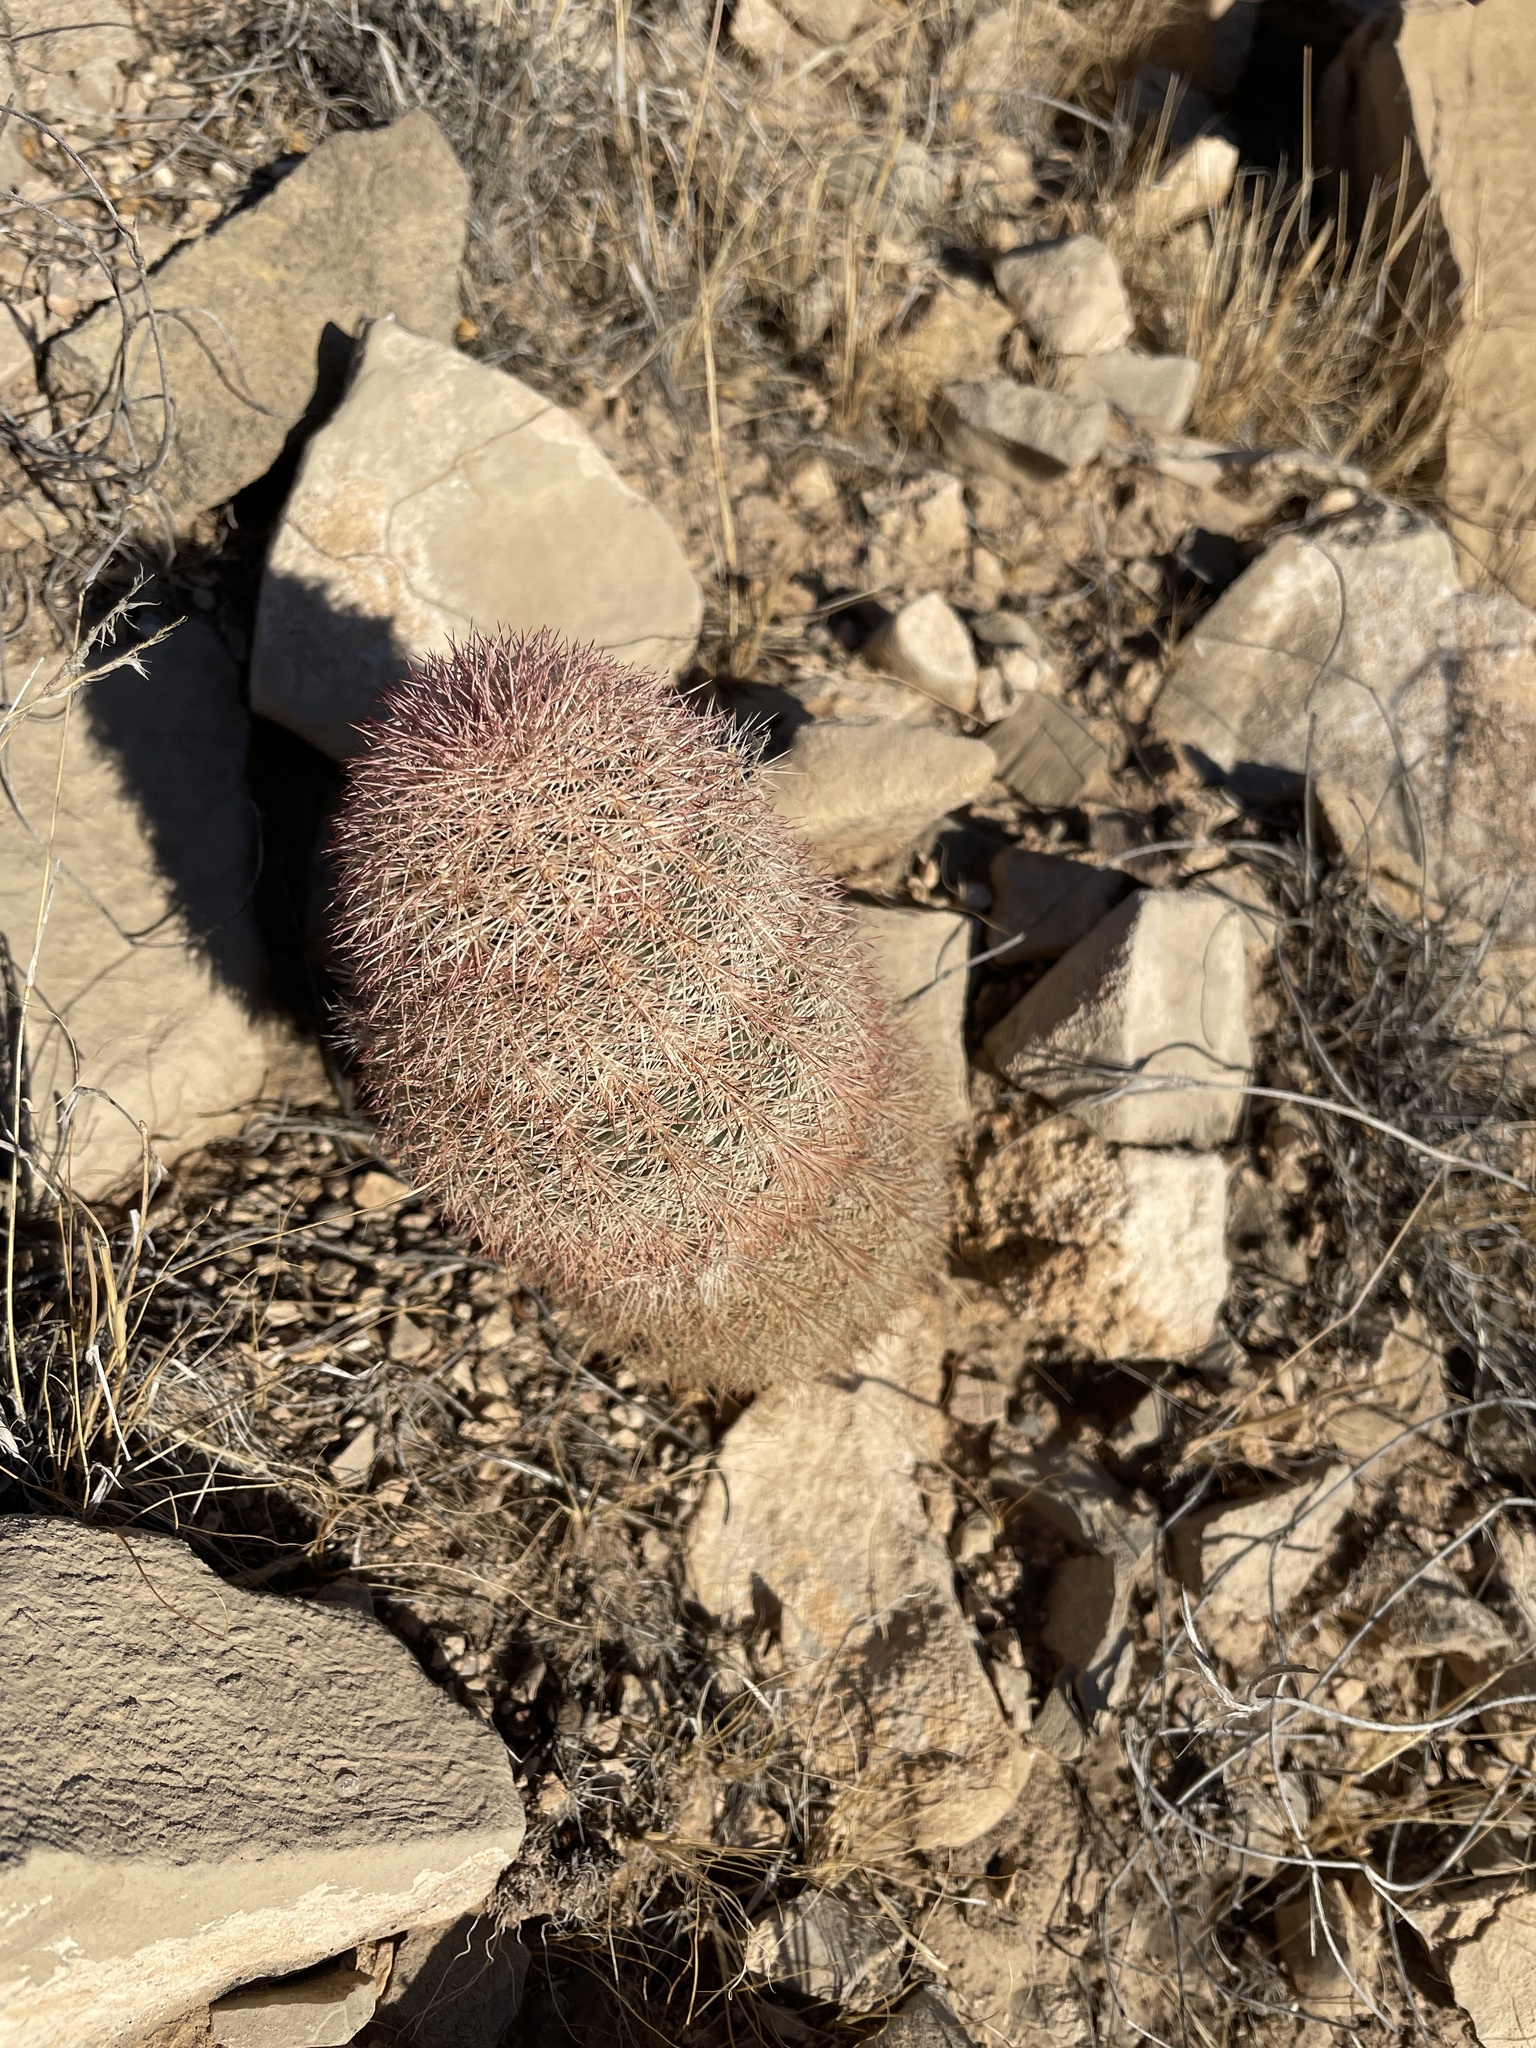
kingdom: Plantae
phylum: Tracheophyta
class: Magnoliopsida
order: Caryophyllales
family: Cactaceae
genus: Echinocereus
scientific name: Echinocereus dasyacanthus
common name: Spiny hedgehog cactus
